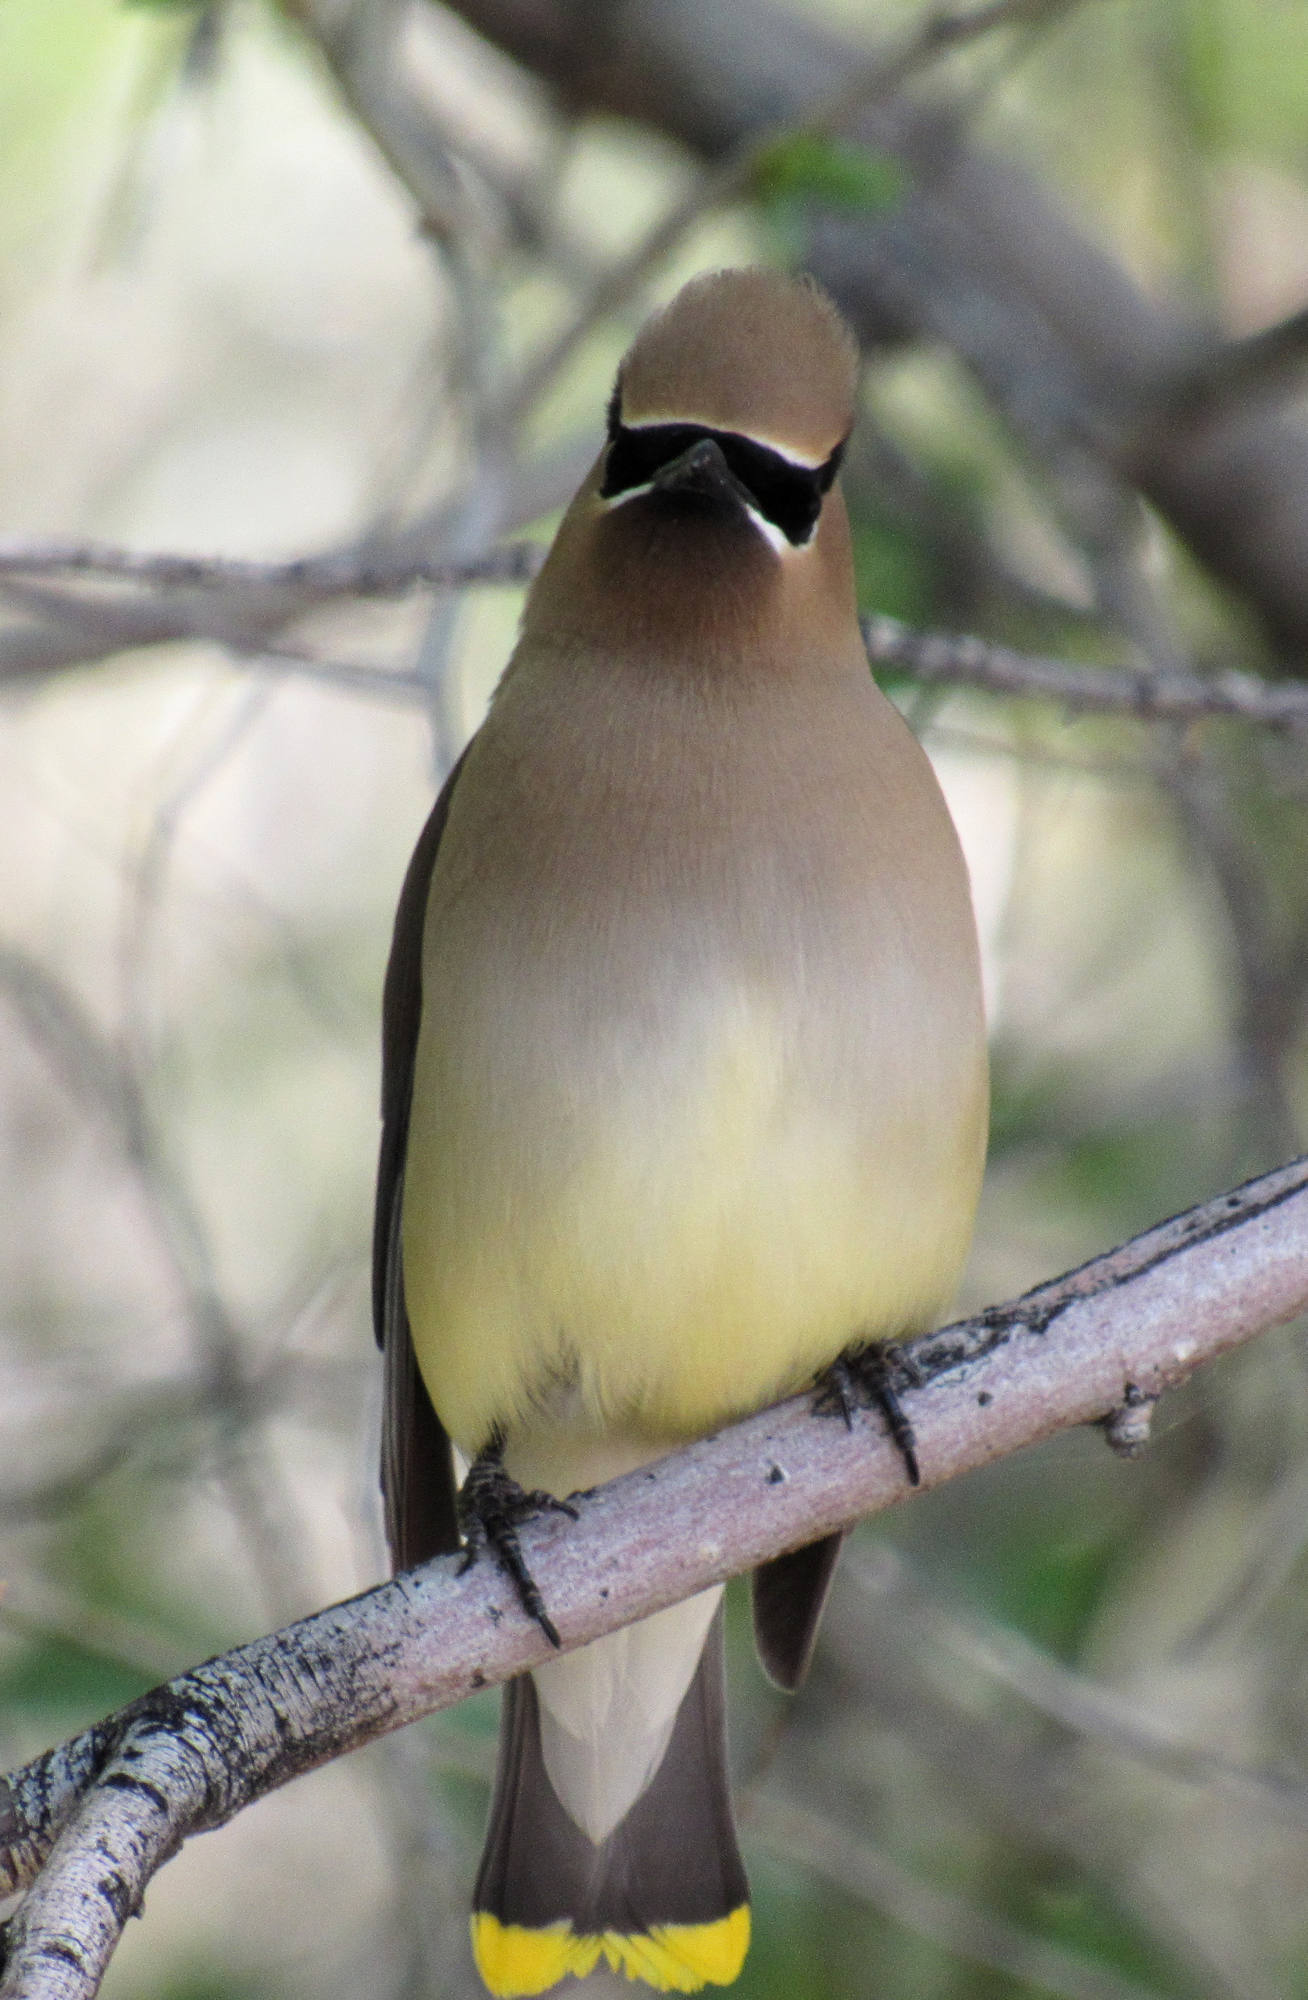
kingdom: Animalia
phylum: Chordata
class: Aves
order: Passeriformes
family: Bombycillidae
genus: Bombycilla
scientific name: Bombycilla cedrorum
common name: Cedar waxwing
